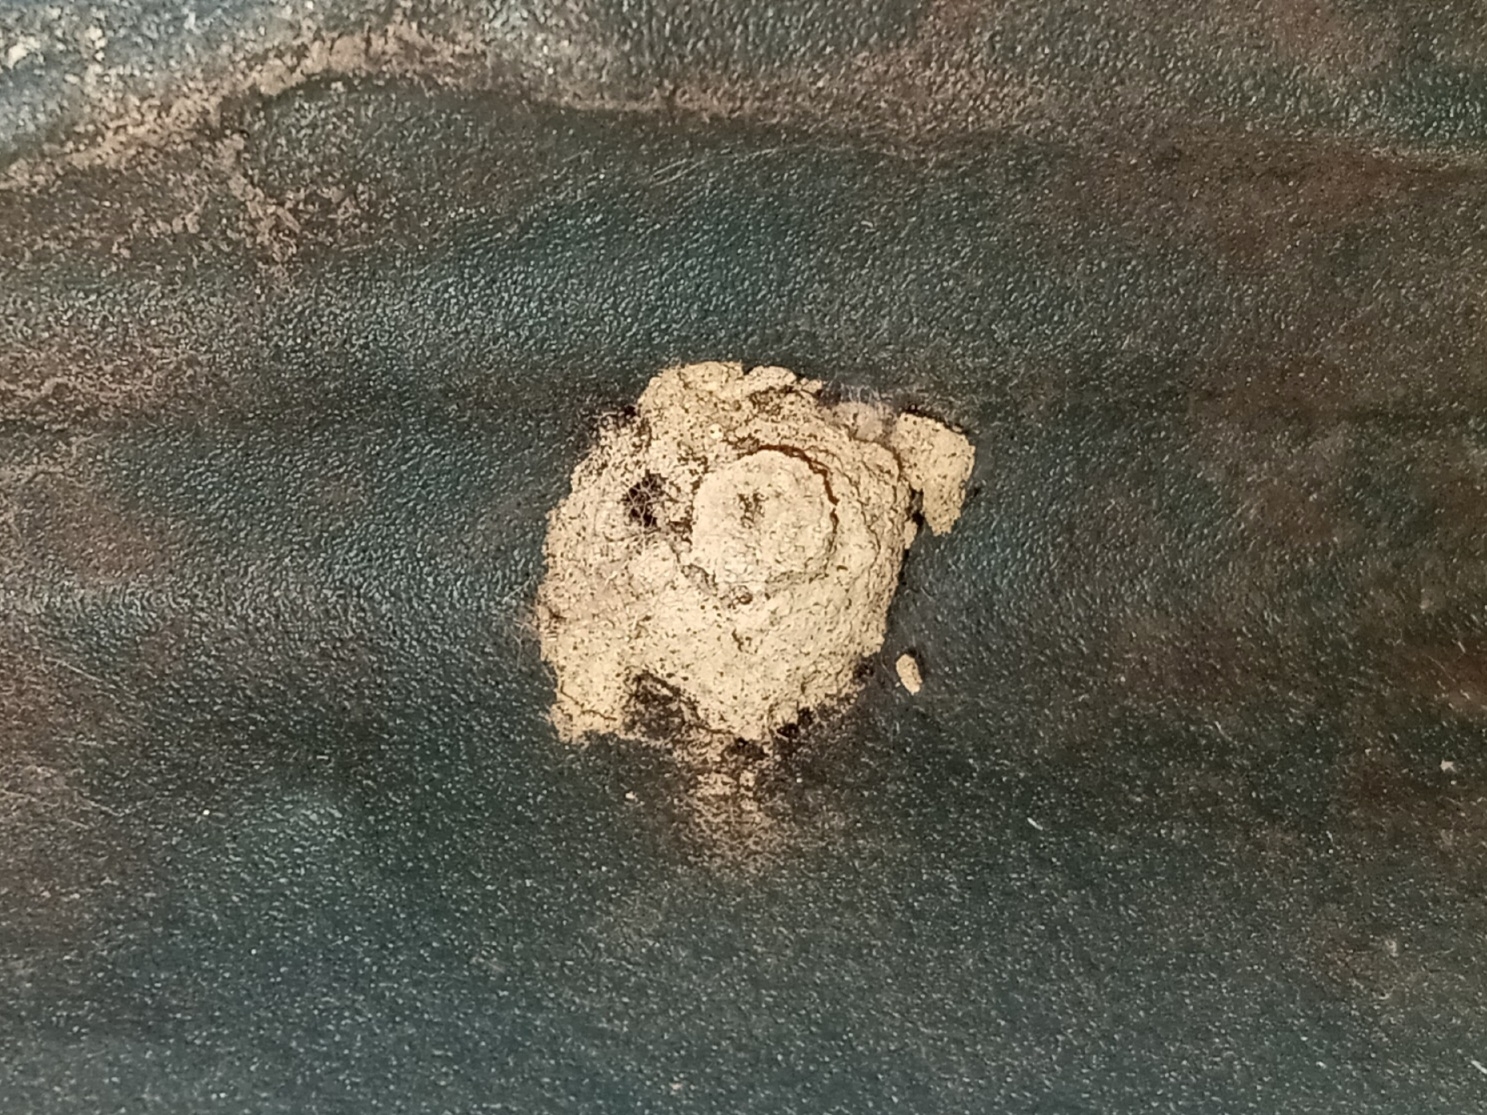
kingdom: Animalia
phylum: Arthropoda
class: Insecta
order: Hymenoptera
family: Vespidae
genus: Eumenes
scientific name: Eumenes
